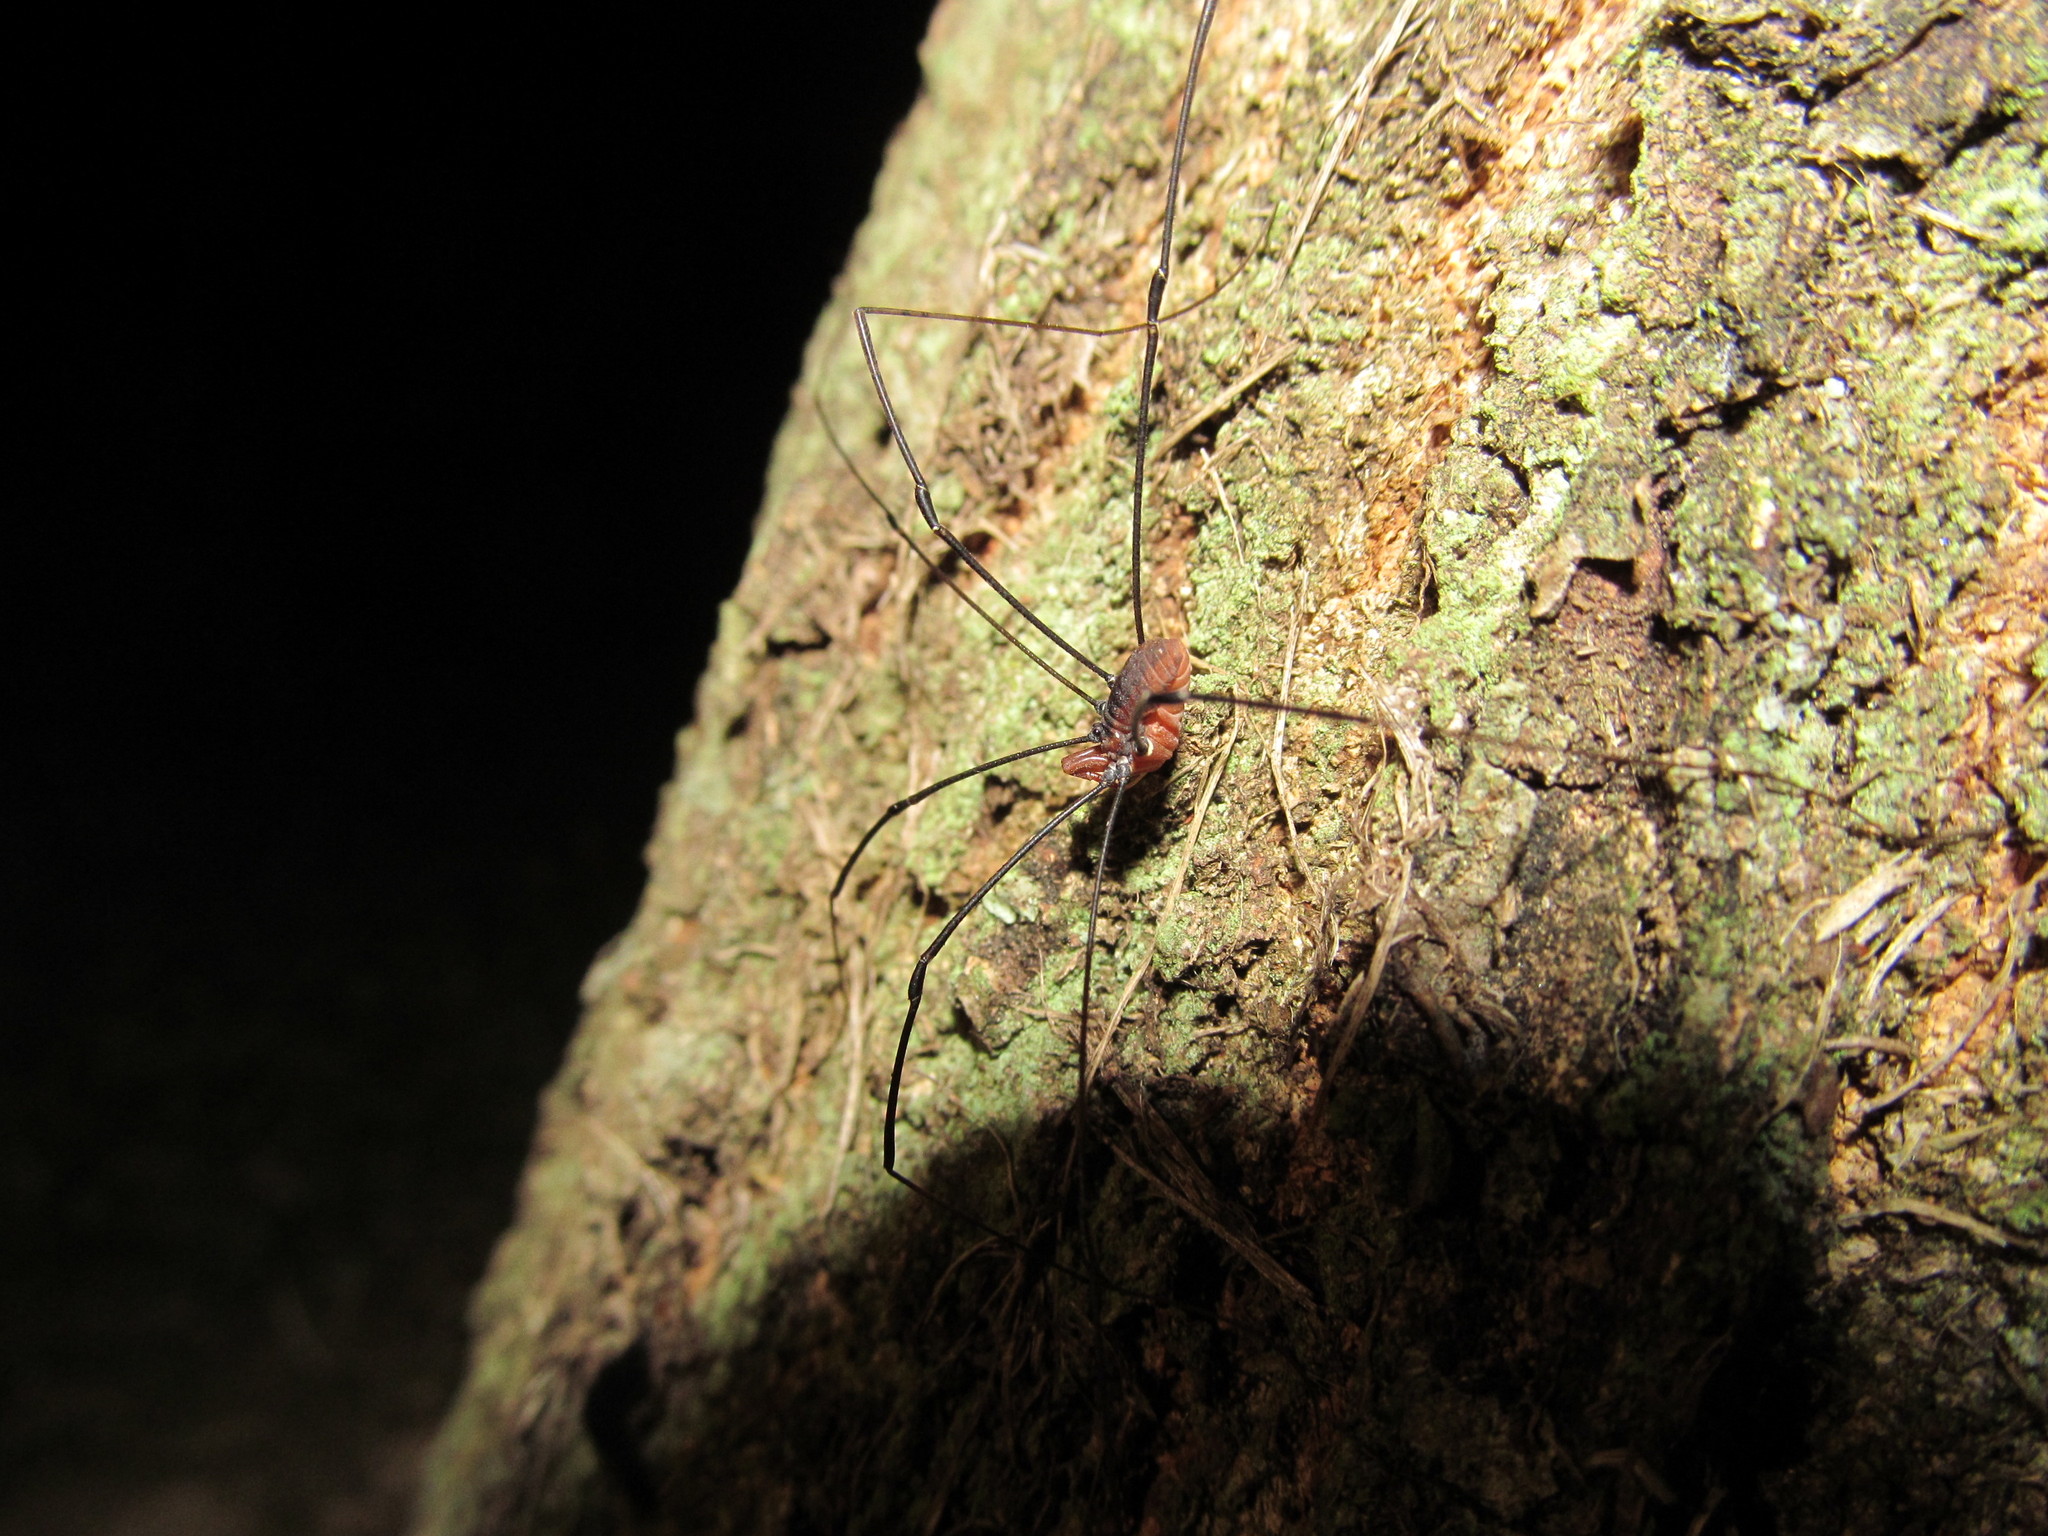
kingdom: Animalia
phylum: Arthropoda
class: Arachnida
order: Opiliones
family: Sclerosomatidae
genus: Leiobunum
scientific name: Leiobunum vittatum
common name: Eastern harvestman
